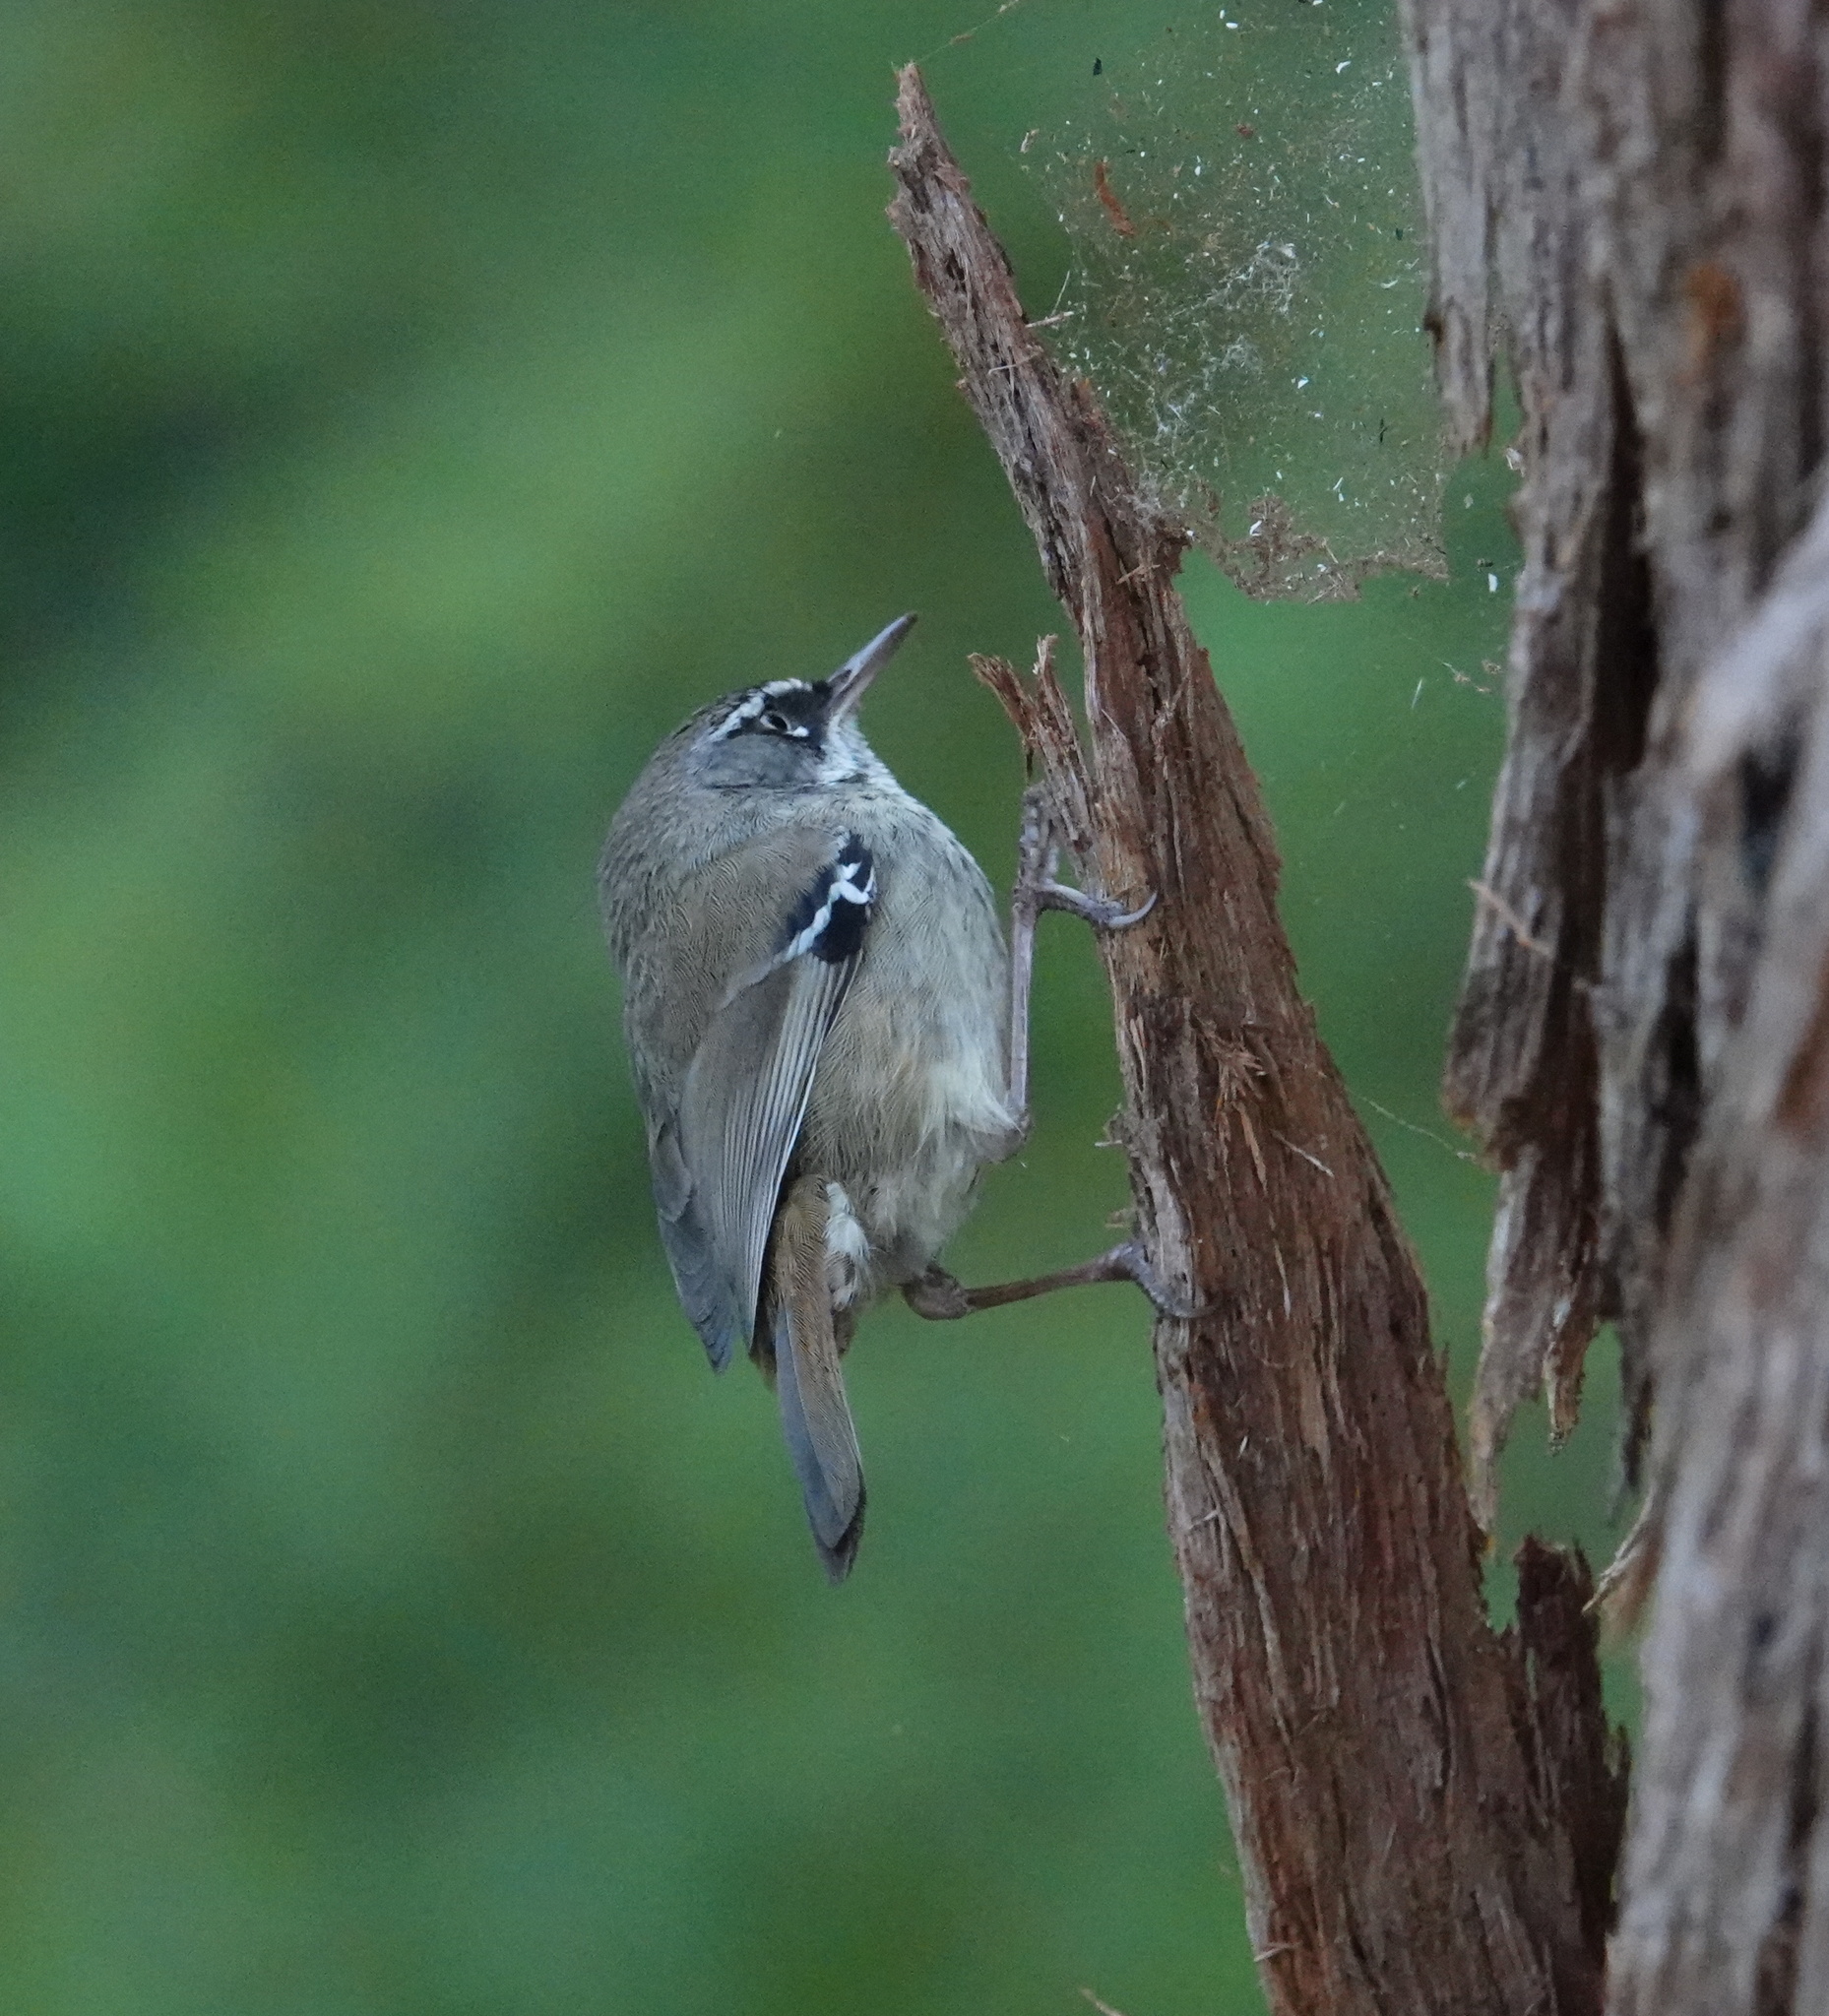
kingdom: Animalia
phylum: Chordata
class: Aves
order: Passeriformes
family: Acanthizidae
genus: Sericornis
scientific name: Sericornis maculatus
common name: Spotted scrubwren
